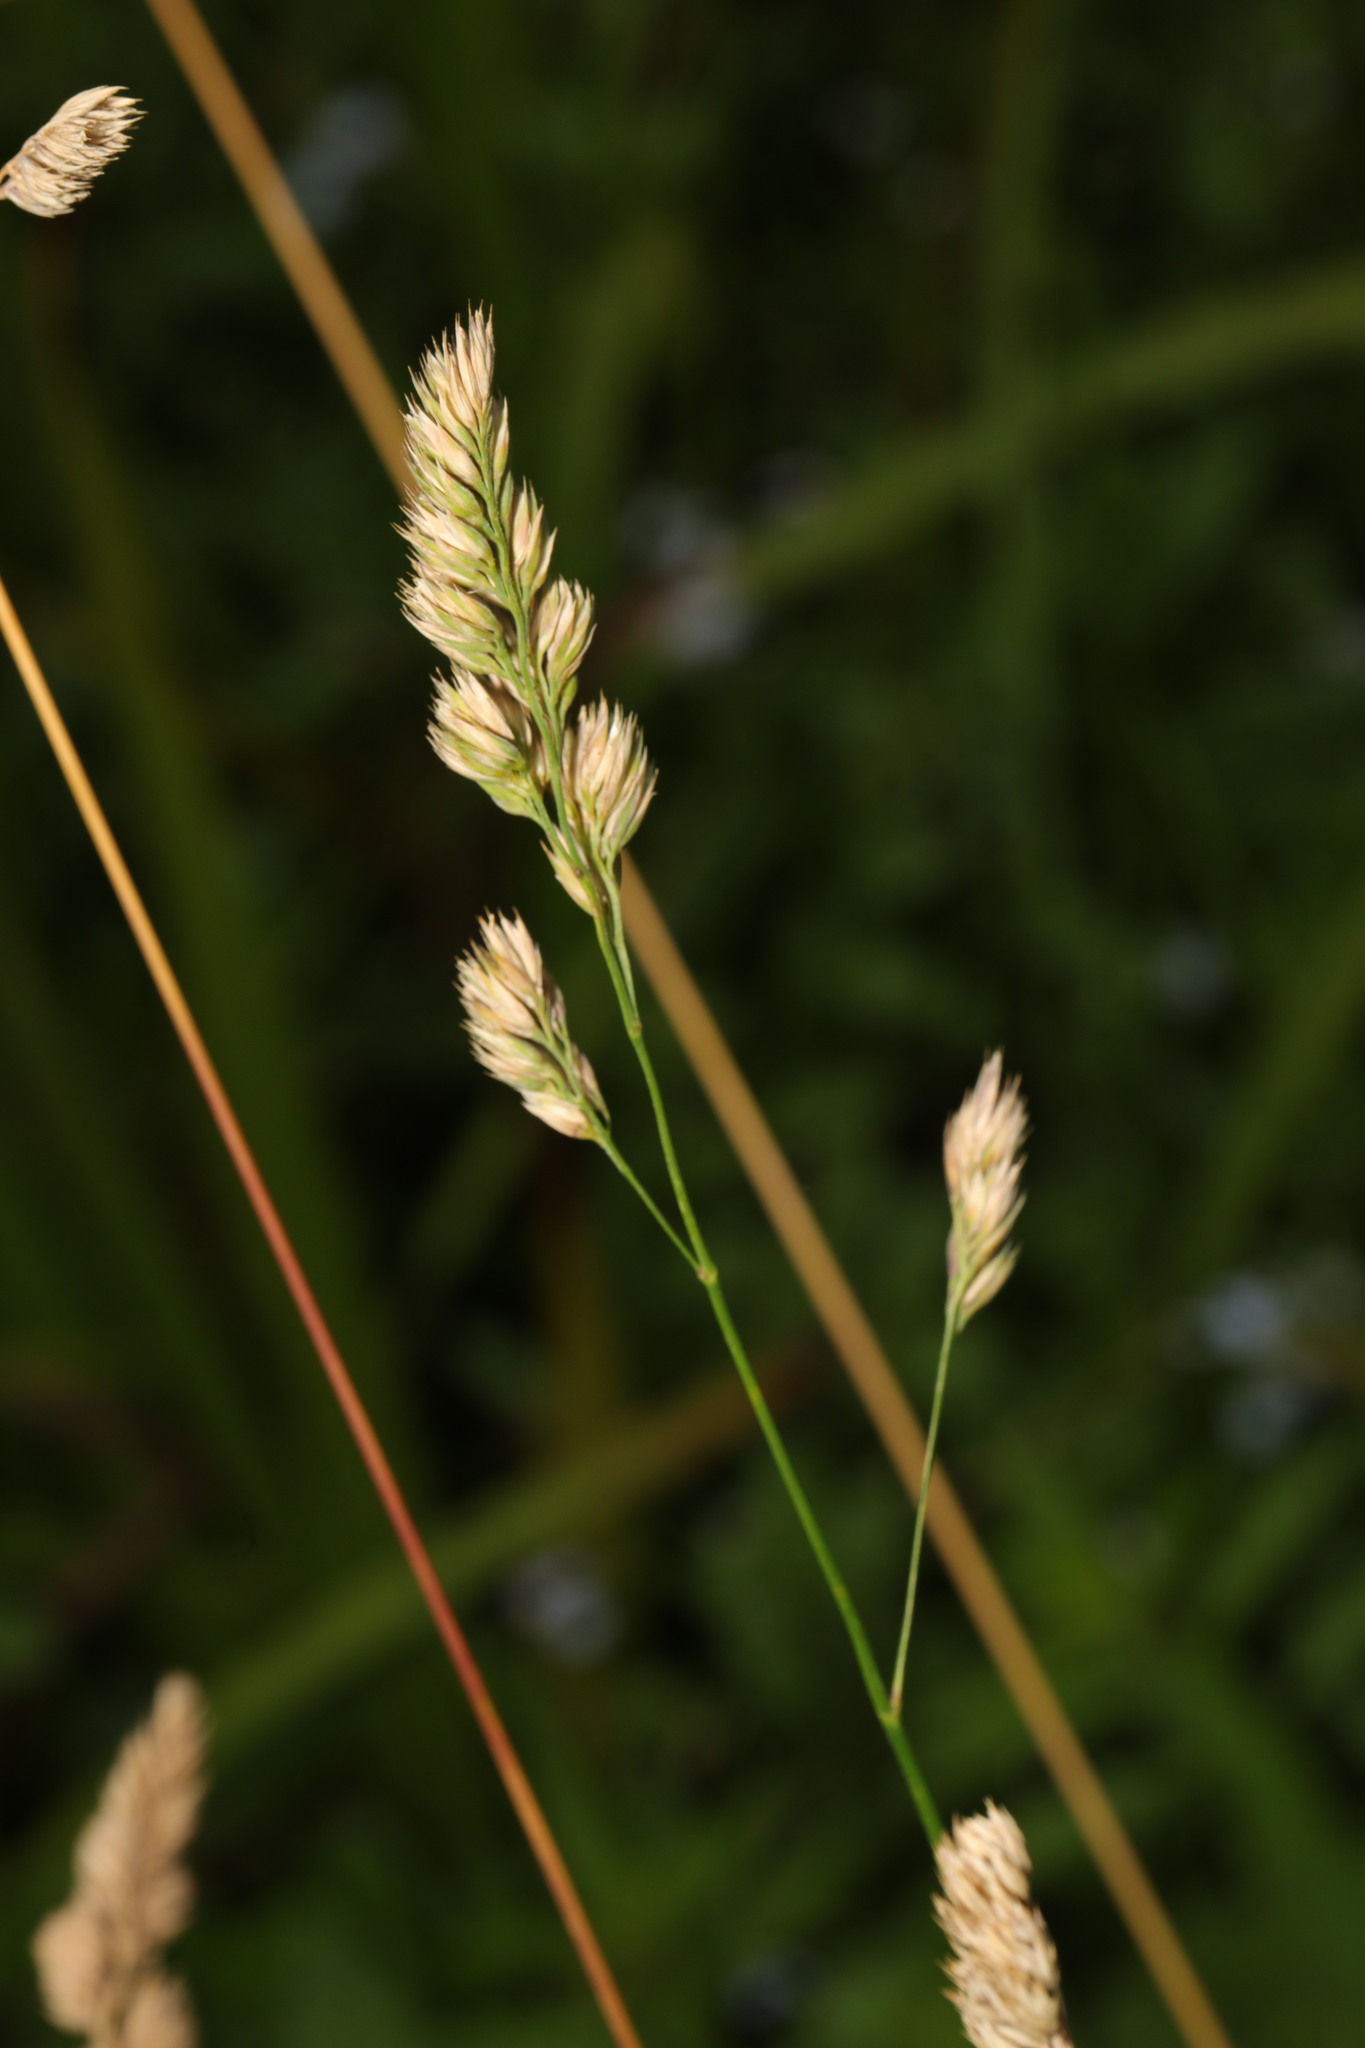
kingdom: Plantae
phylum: Tracheophyta
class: Liliopsida
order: Poales
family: Poaceae
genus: Dactylis
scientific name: Dactylis glomerata
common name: Orchardgrass
